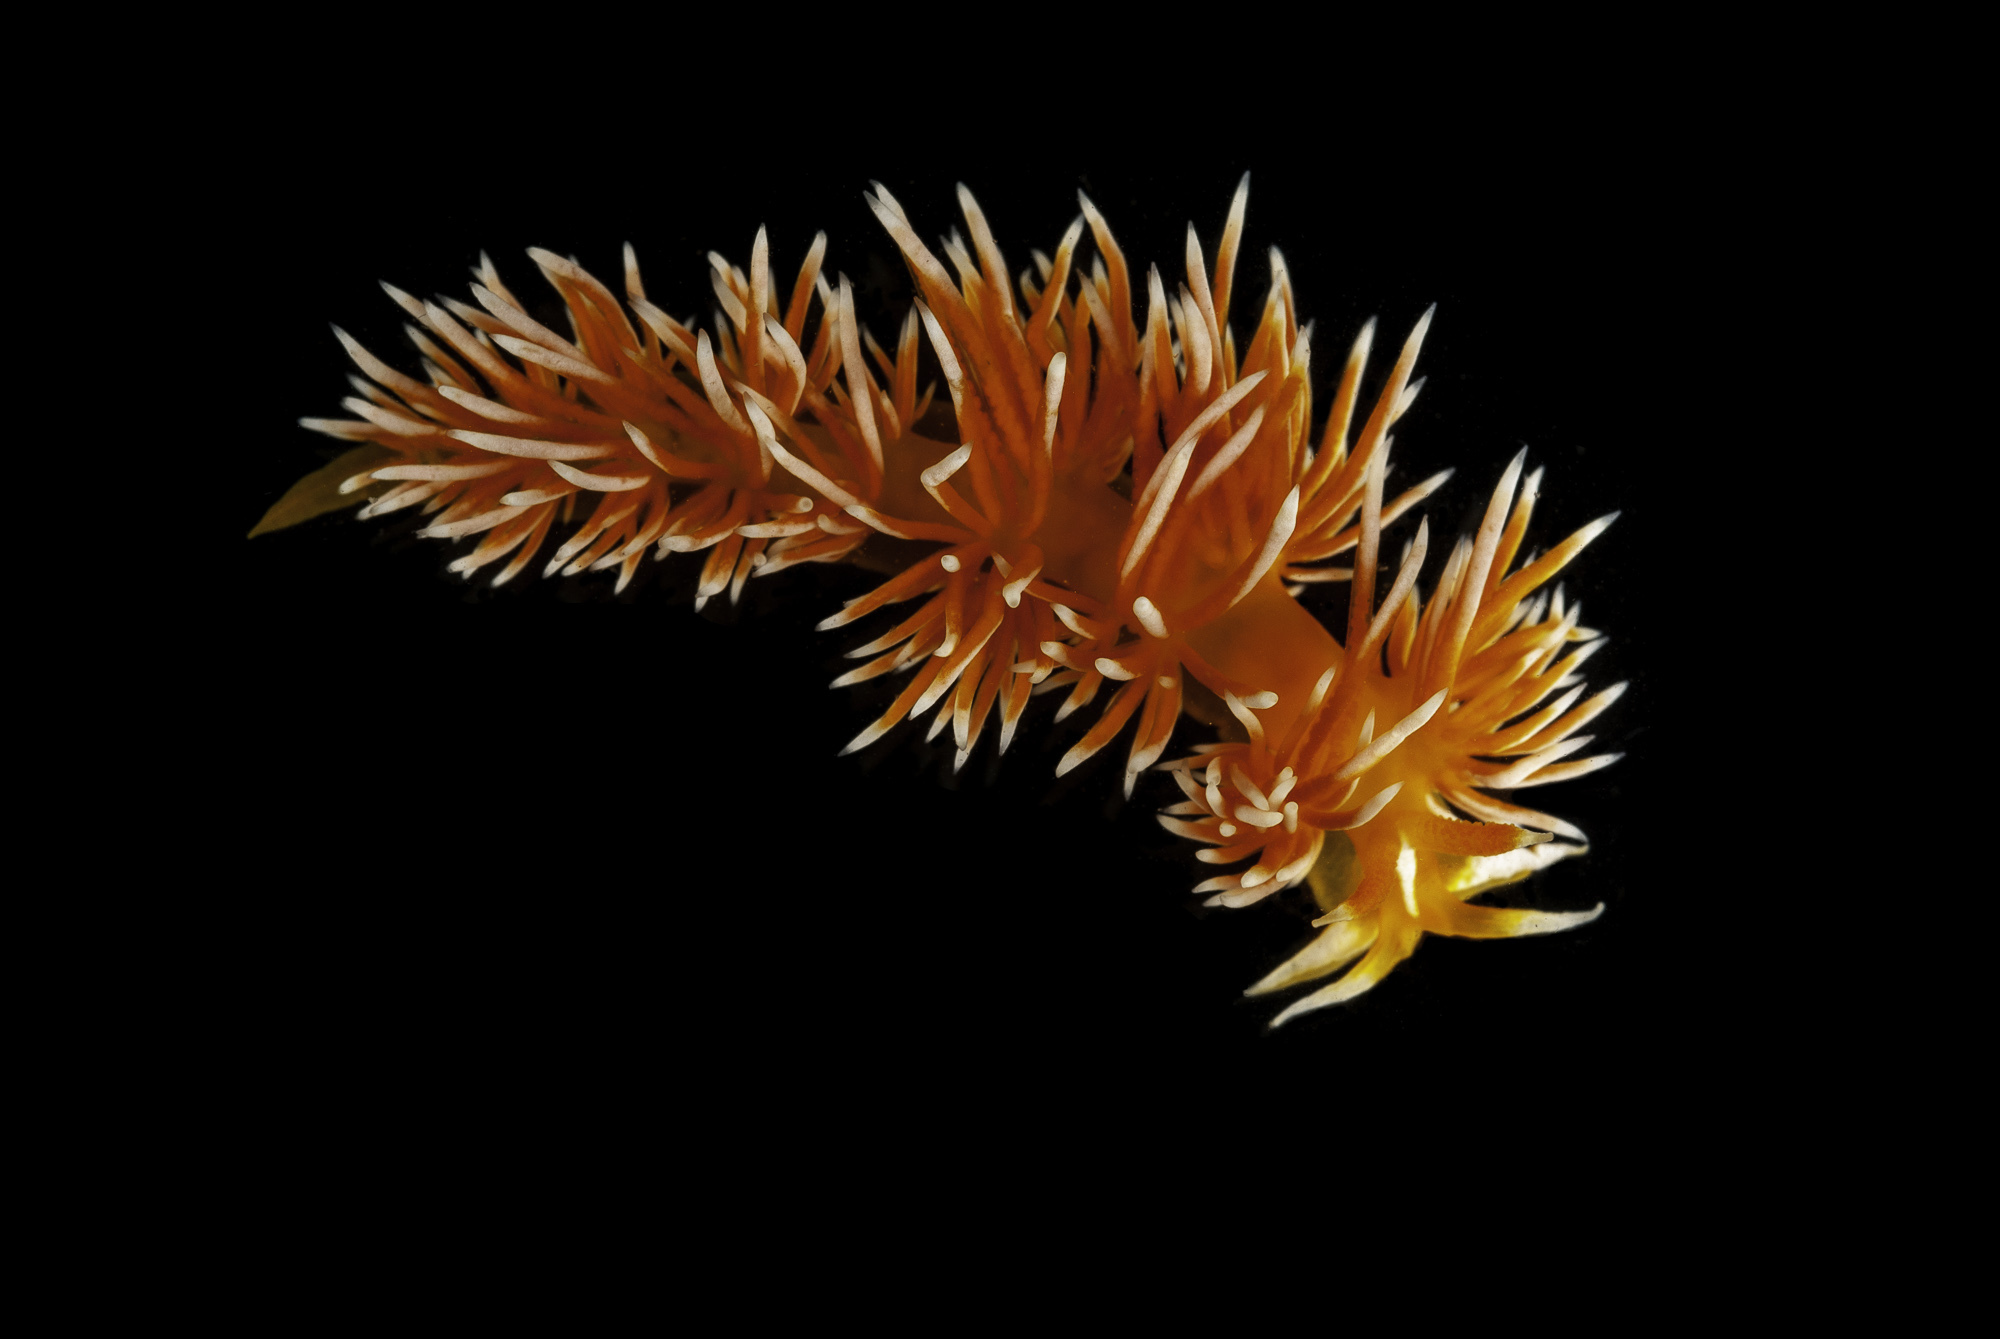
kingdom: Animalia
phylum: Mollusca
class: Gastropoda
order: Nudibranchia
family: Facelinidae
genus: Sakuraeolis
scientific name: Sakuraeolis arcana
